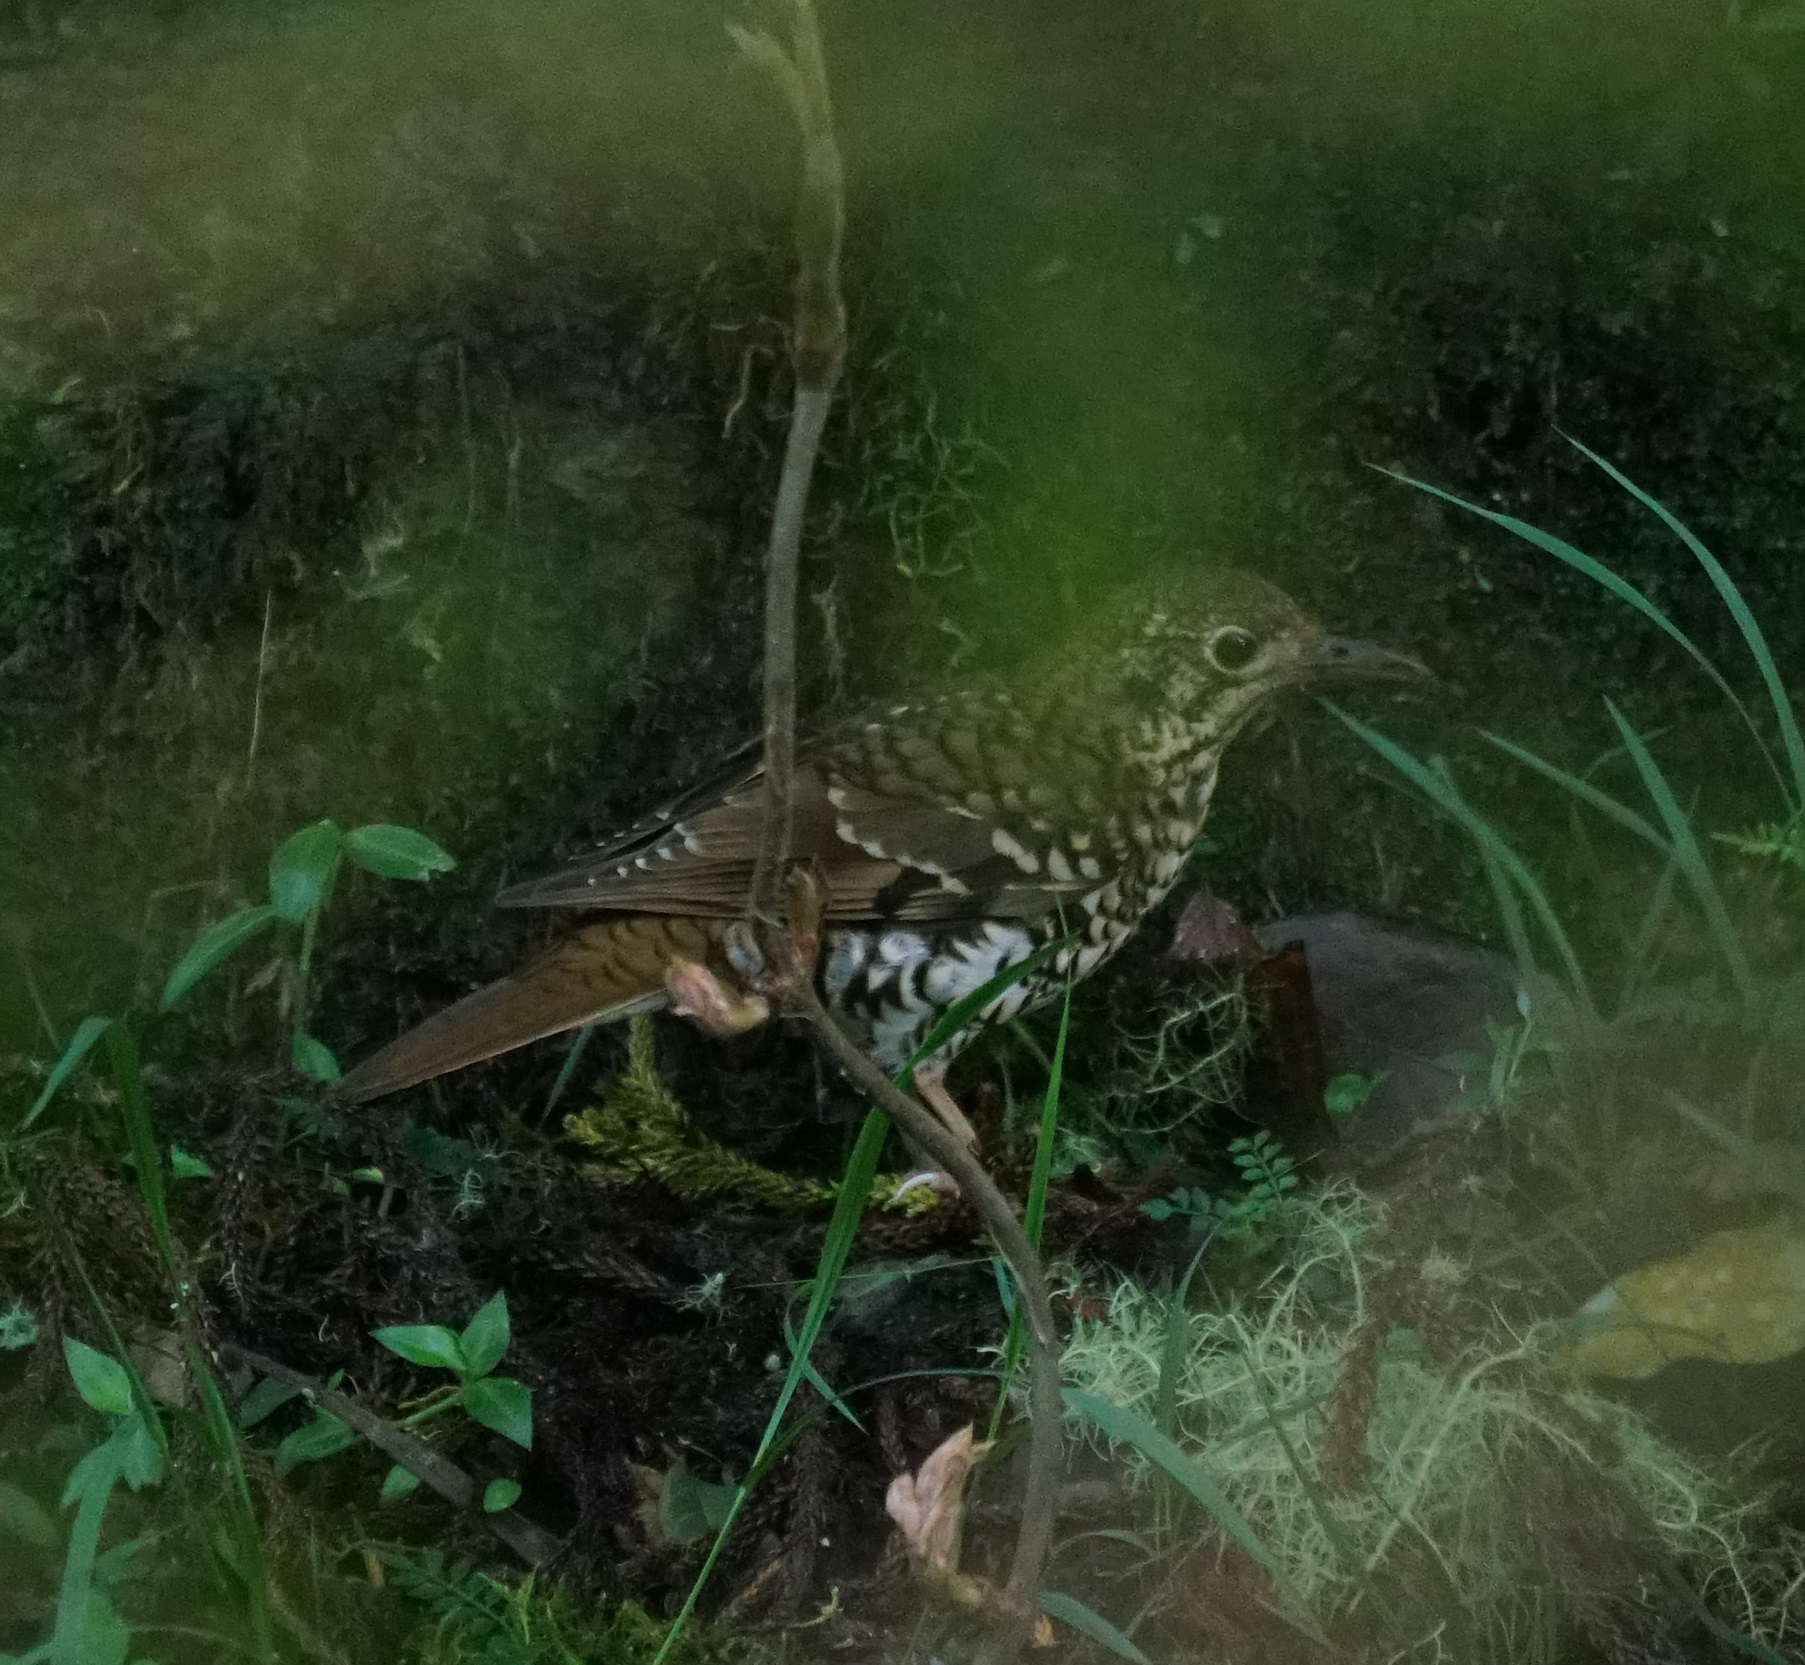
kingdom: Animalia
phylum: Chordata
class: Aves
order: Passeriformes
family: Turdidae
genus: Zoothera
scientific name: Zoothera heinei
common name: Russet-tailed thrush
